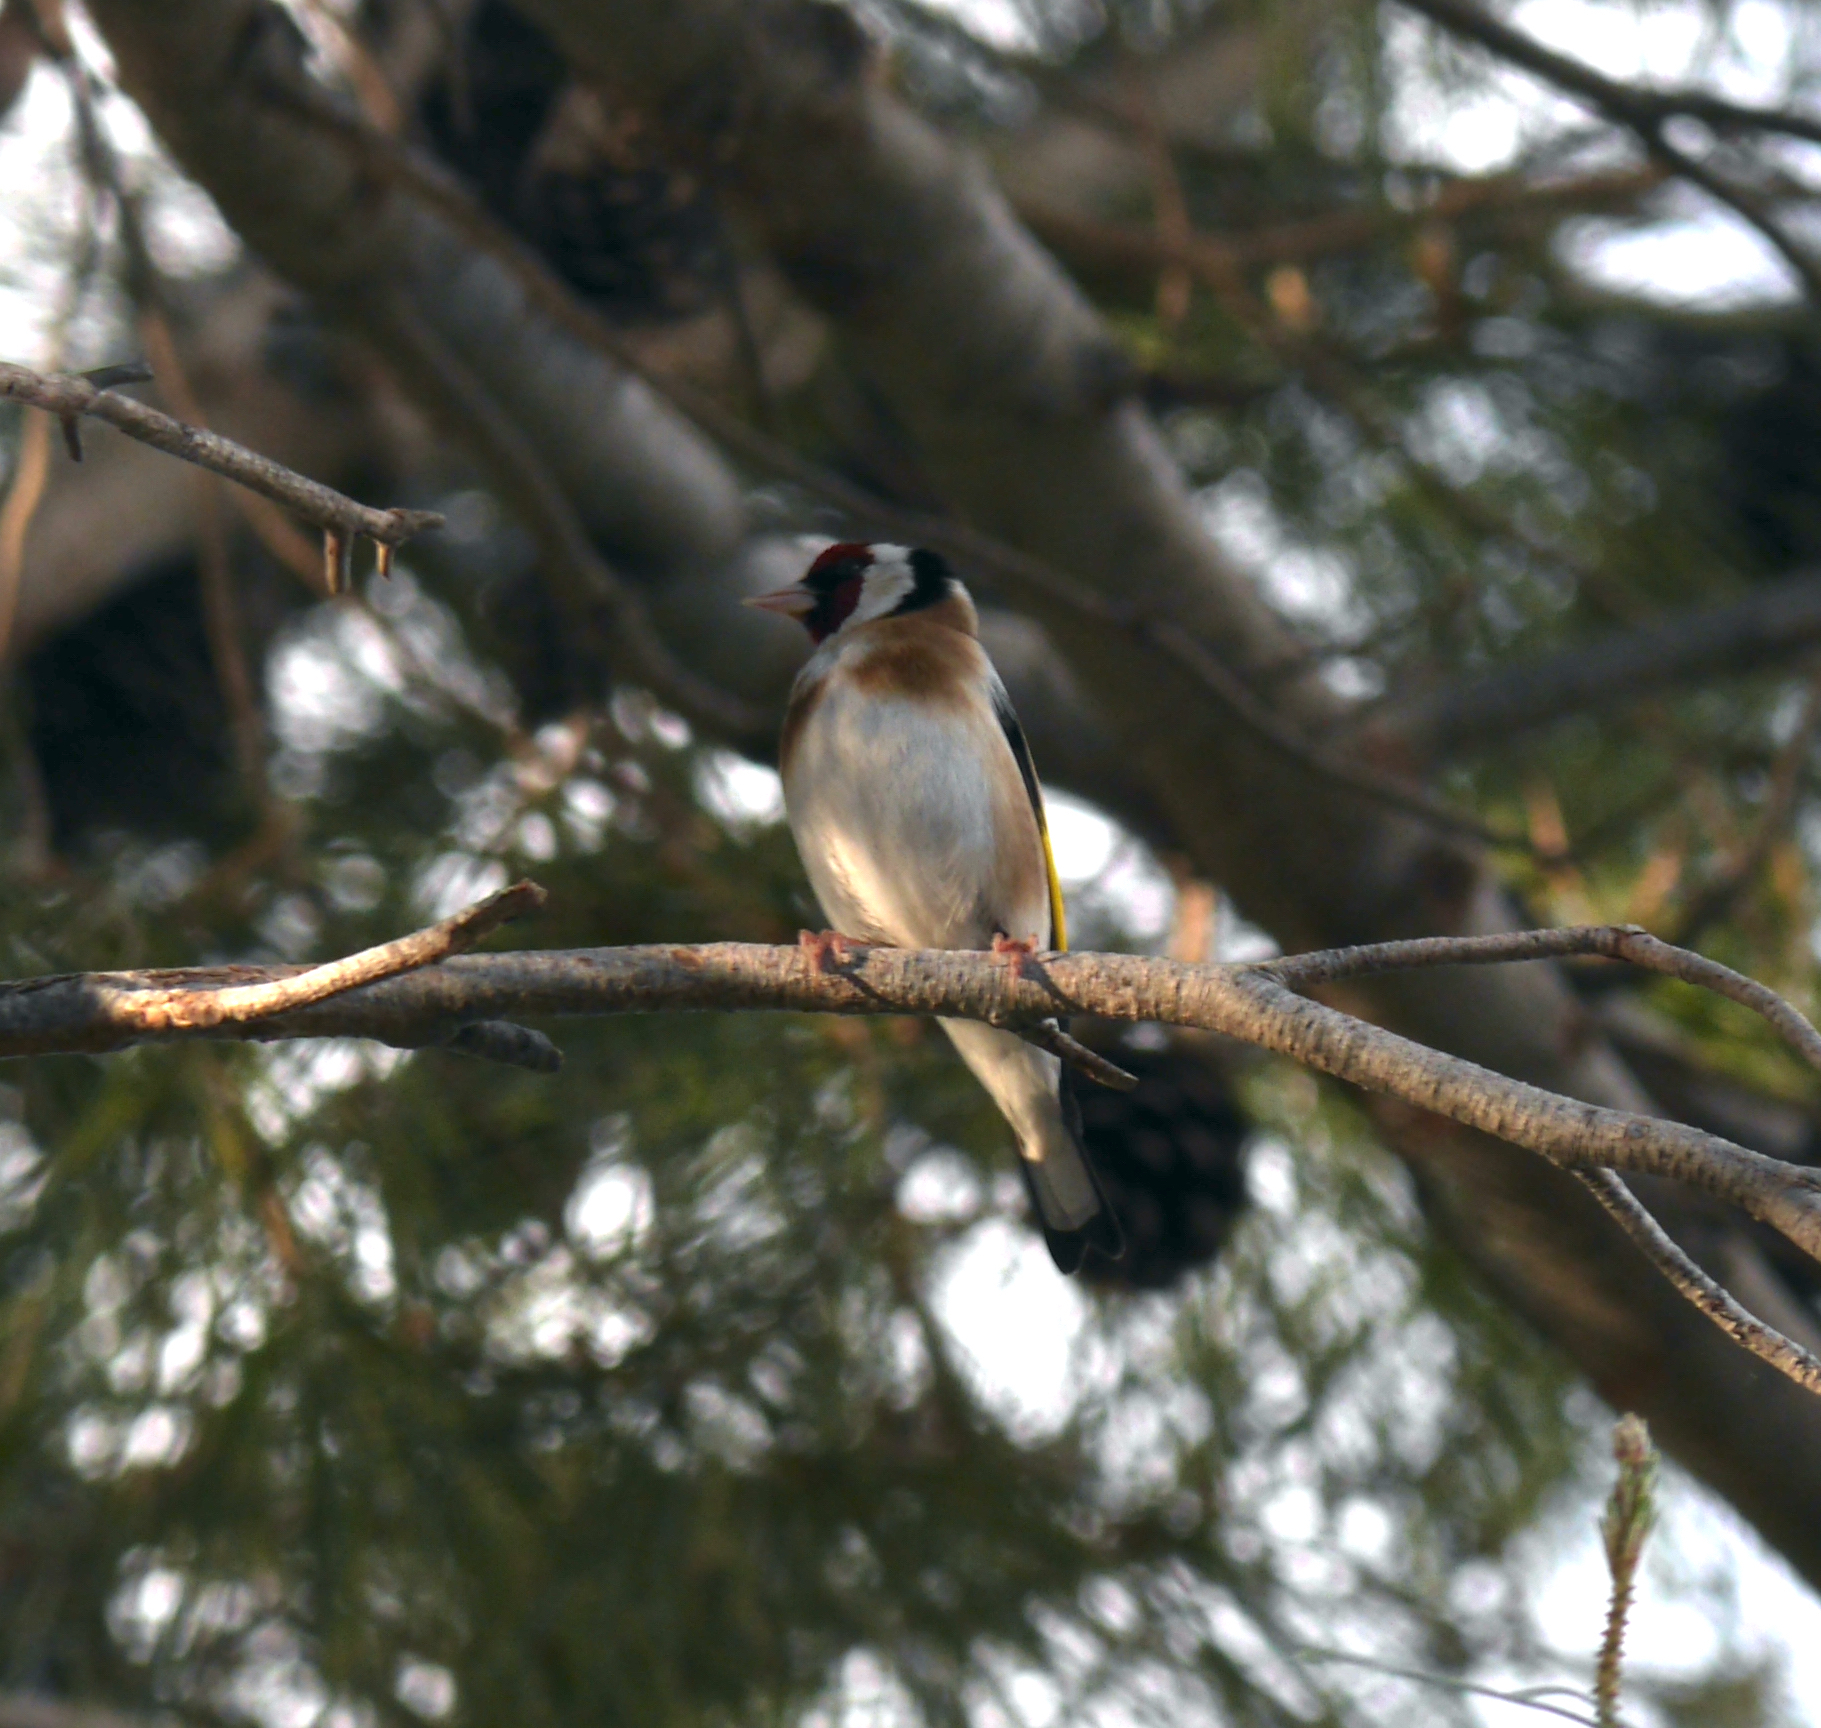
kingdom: Animalia
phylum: Chordata
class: Aves
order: Passeriformes
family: Fringillidae
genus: Carduelis
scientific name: Carduelis carduelis
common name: European goldfinch
